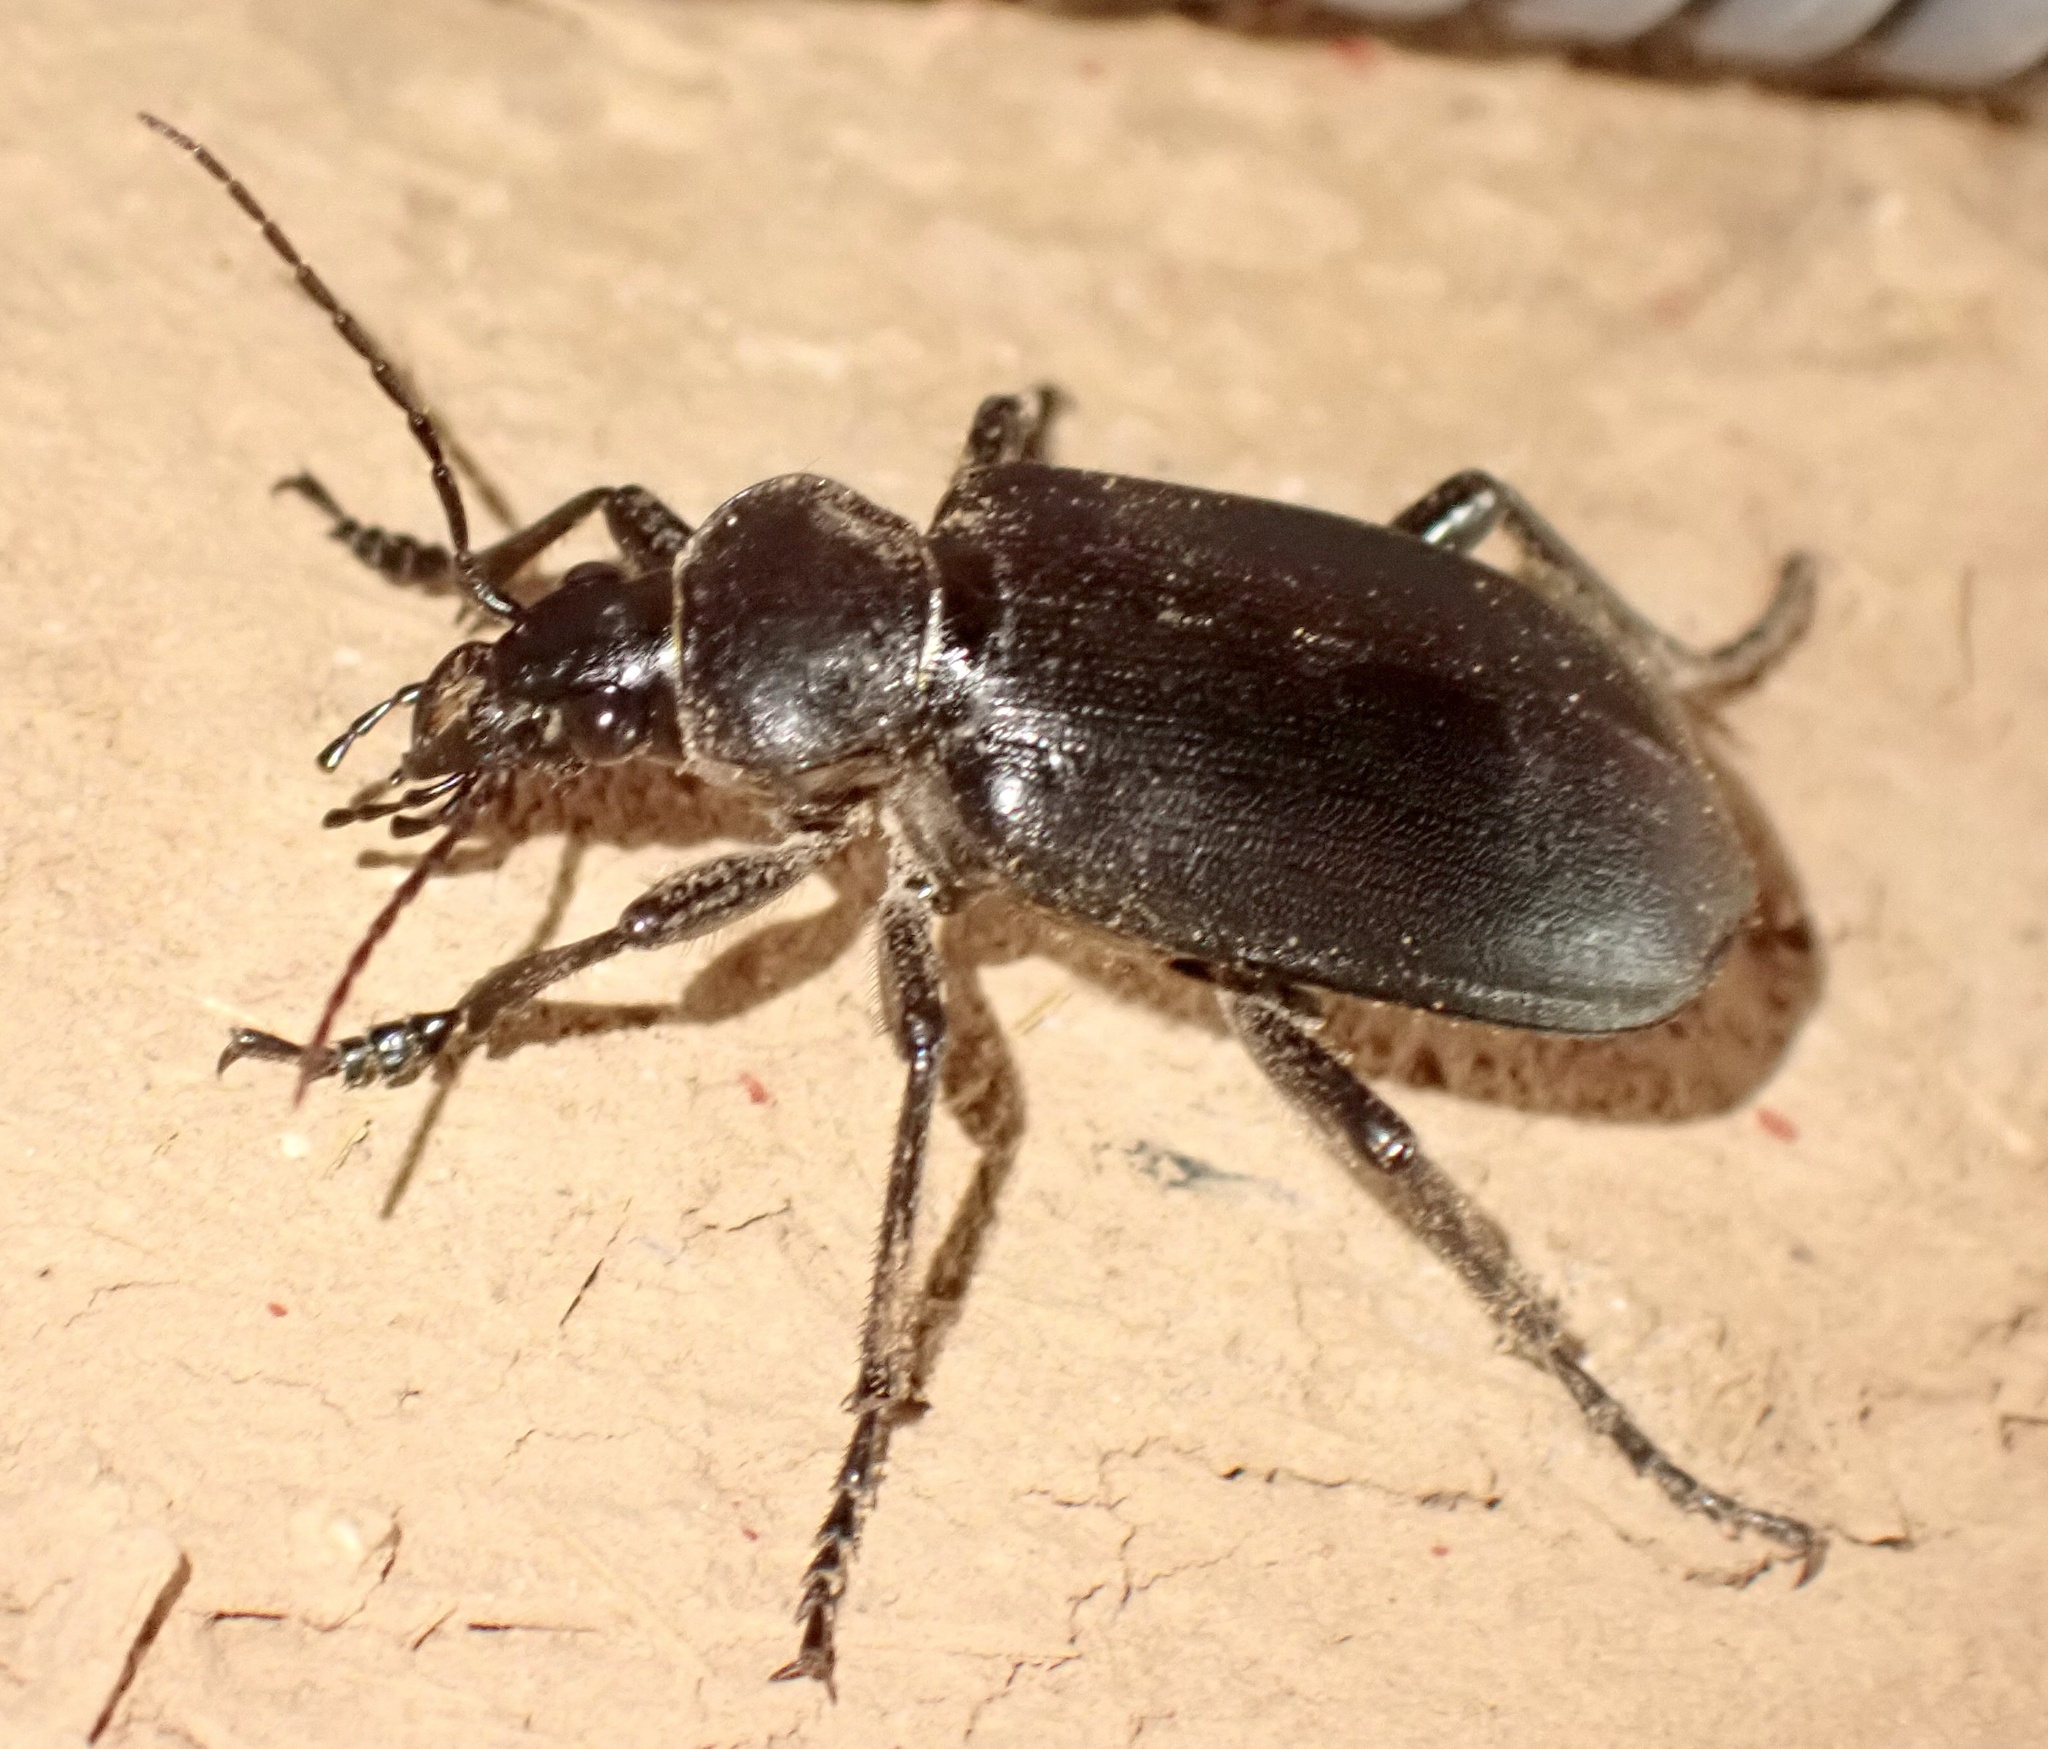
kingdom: Animalia
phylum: Arthropoda
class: Insecta
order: Coleoptera
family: Carabidae
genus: Calosoma
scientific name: Calosoma maderae
